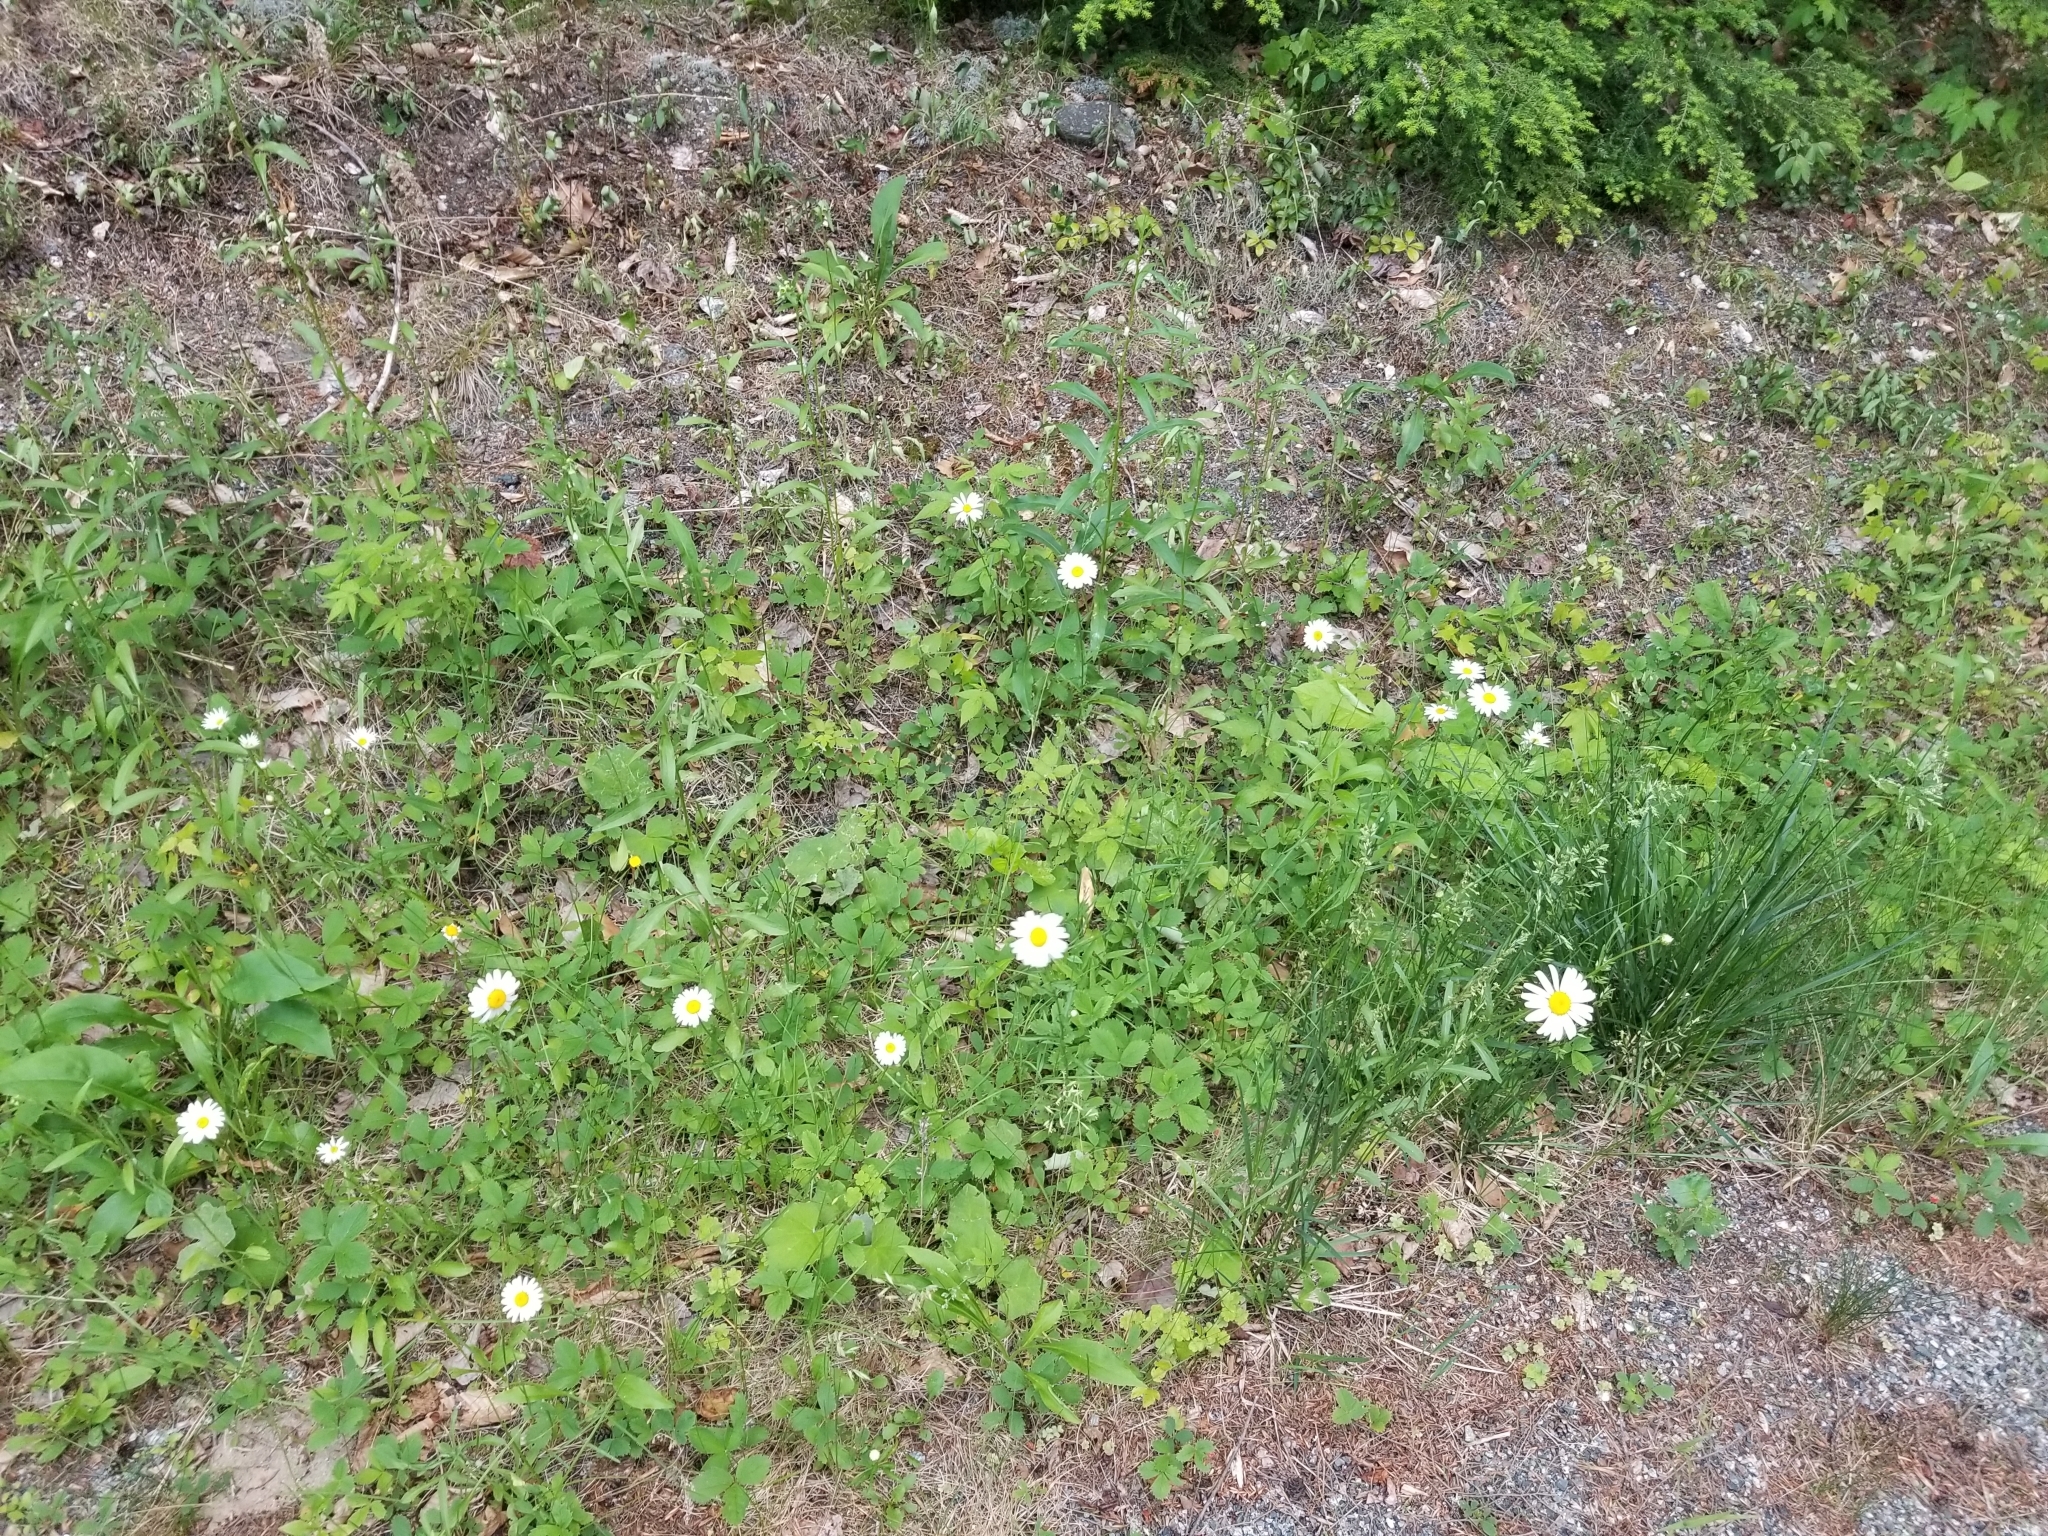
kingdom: Plantae
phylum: Tracheophyta
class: Magnoliopsida
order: Asterales
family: Asteraceae
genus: Leucanthemum
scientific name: Leucanthemum vulgare
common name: Oxeye daisy
